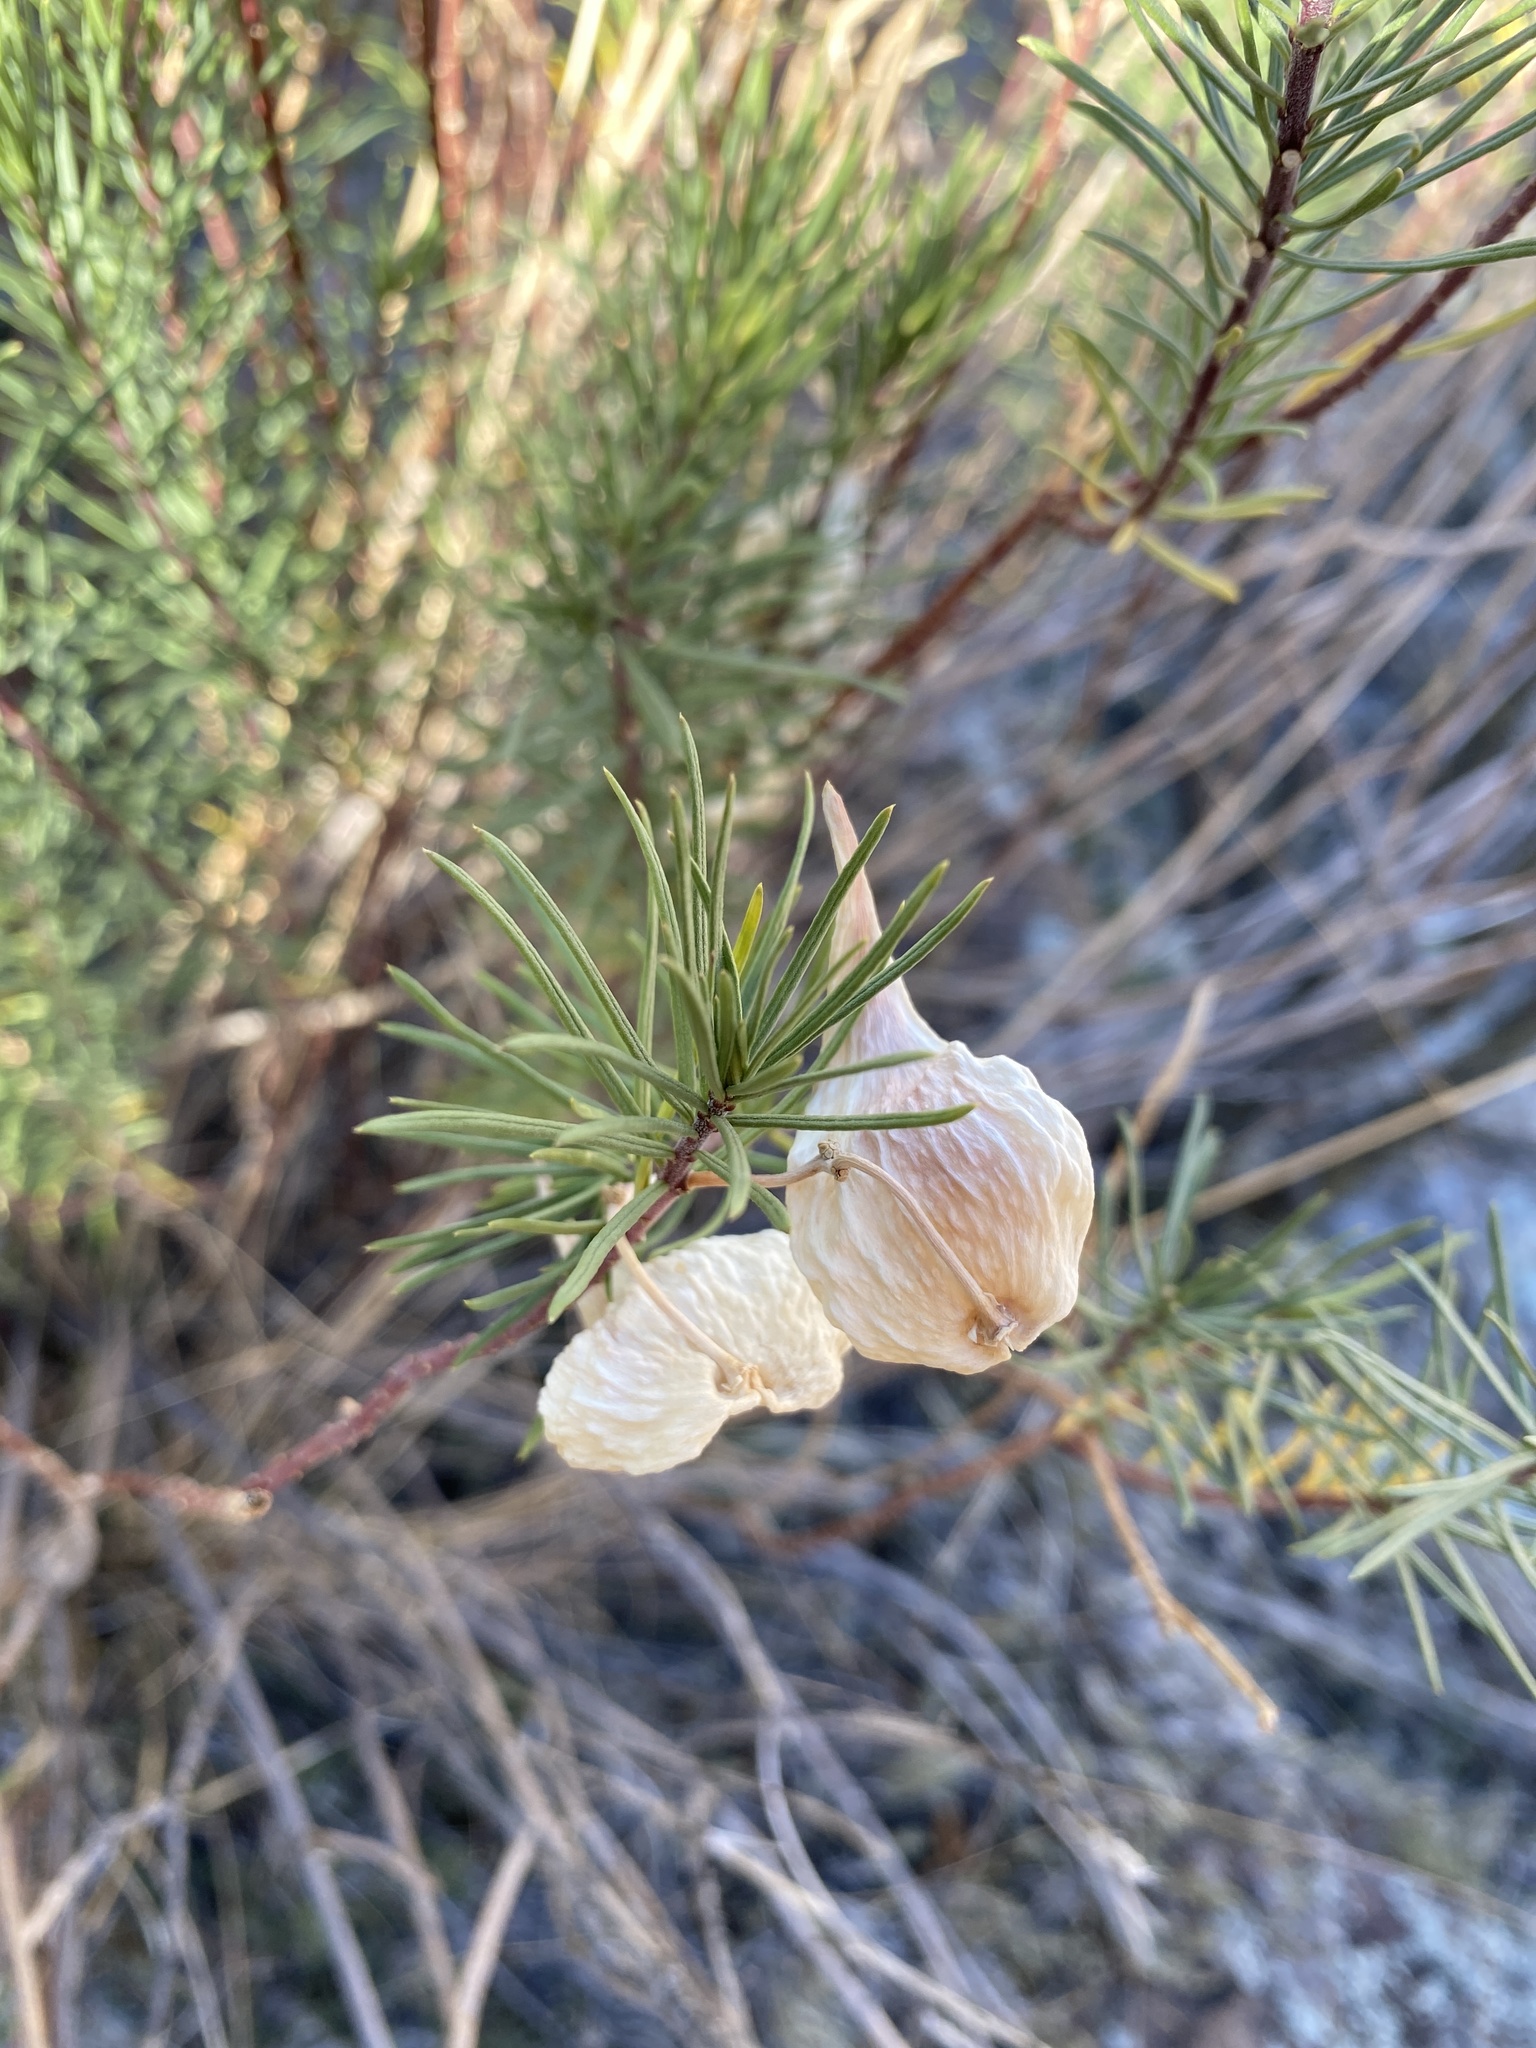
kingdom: Plantae
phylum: Tracheophyta
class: Magnoliopsida
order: Gentianales
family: Apocynaceae
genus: Asclepias
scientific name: Asclepias linaria
